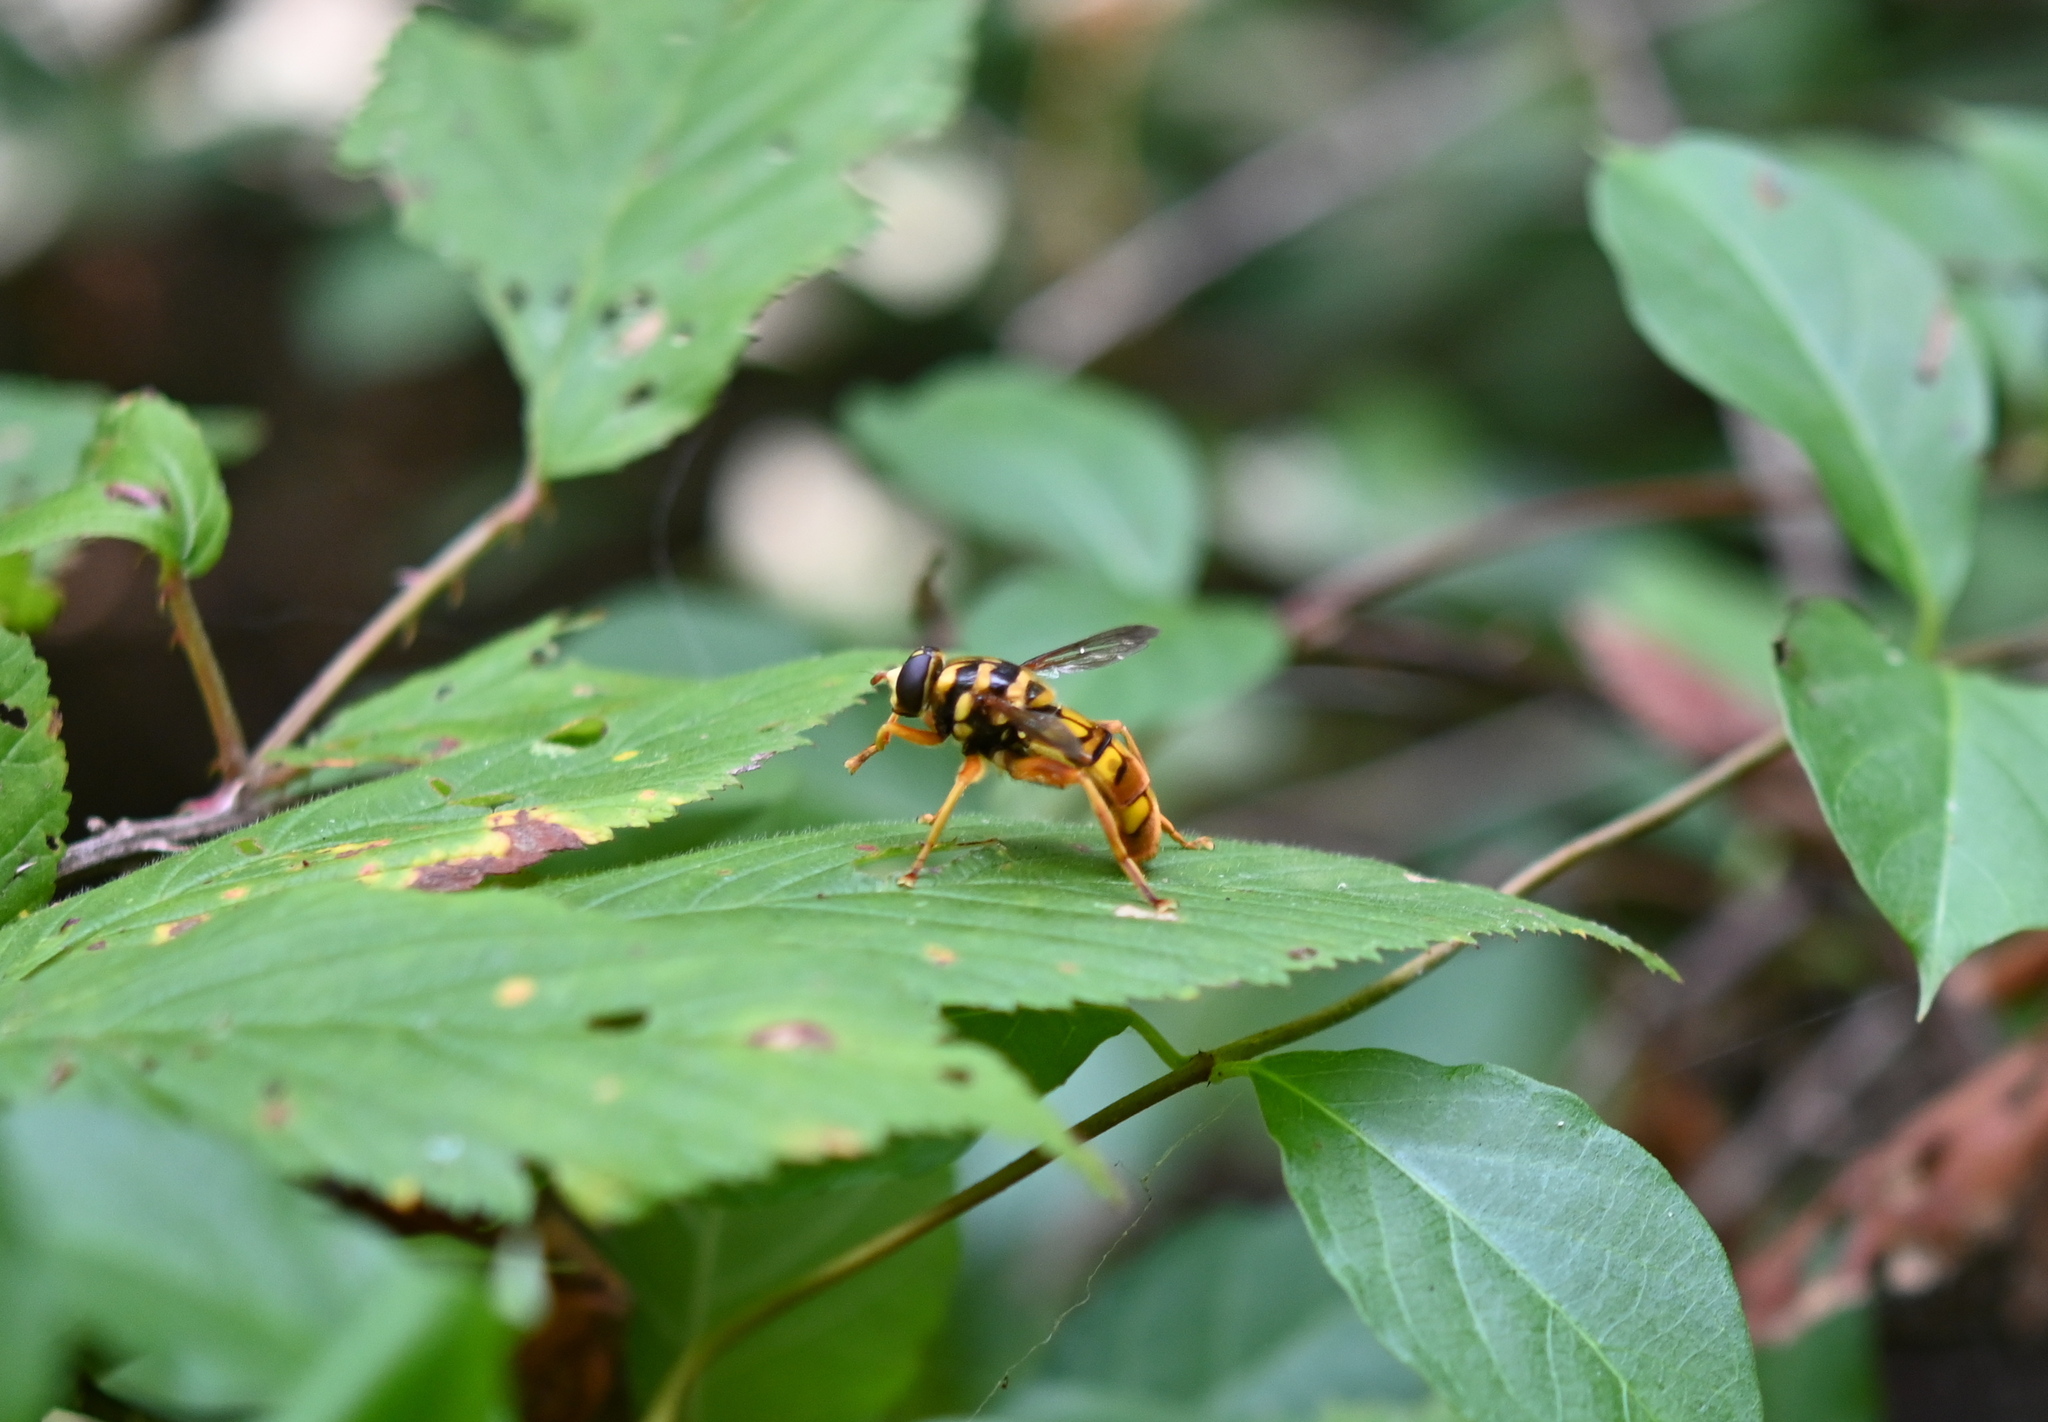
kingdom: Animalia
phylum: Arthropoda
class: Insecta
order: Diptera
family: Syrphidae
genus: Milesia
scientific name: Milesia virginiensis
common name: Virginia giant
